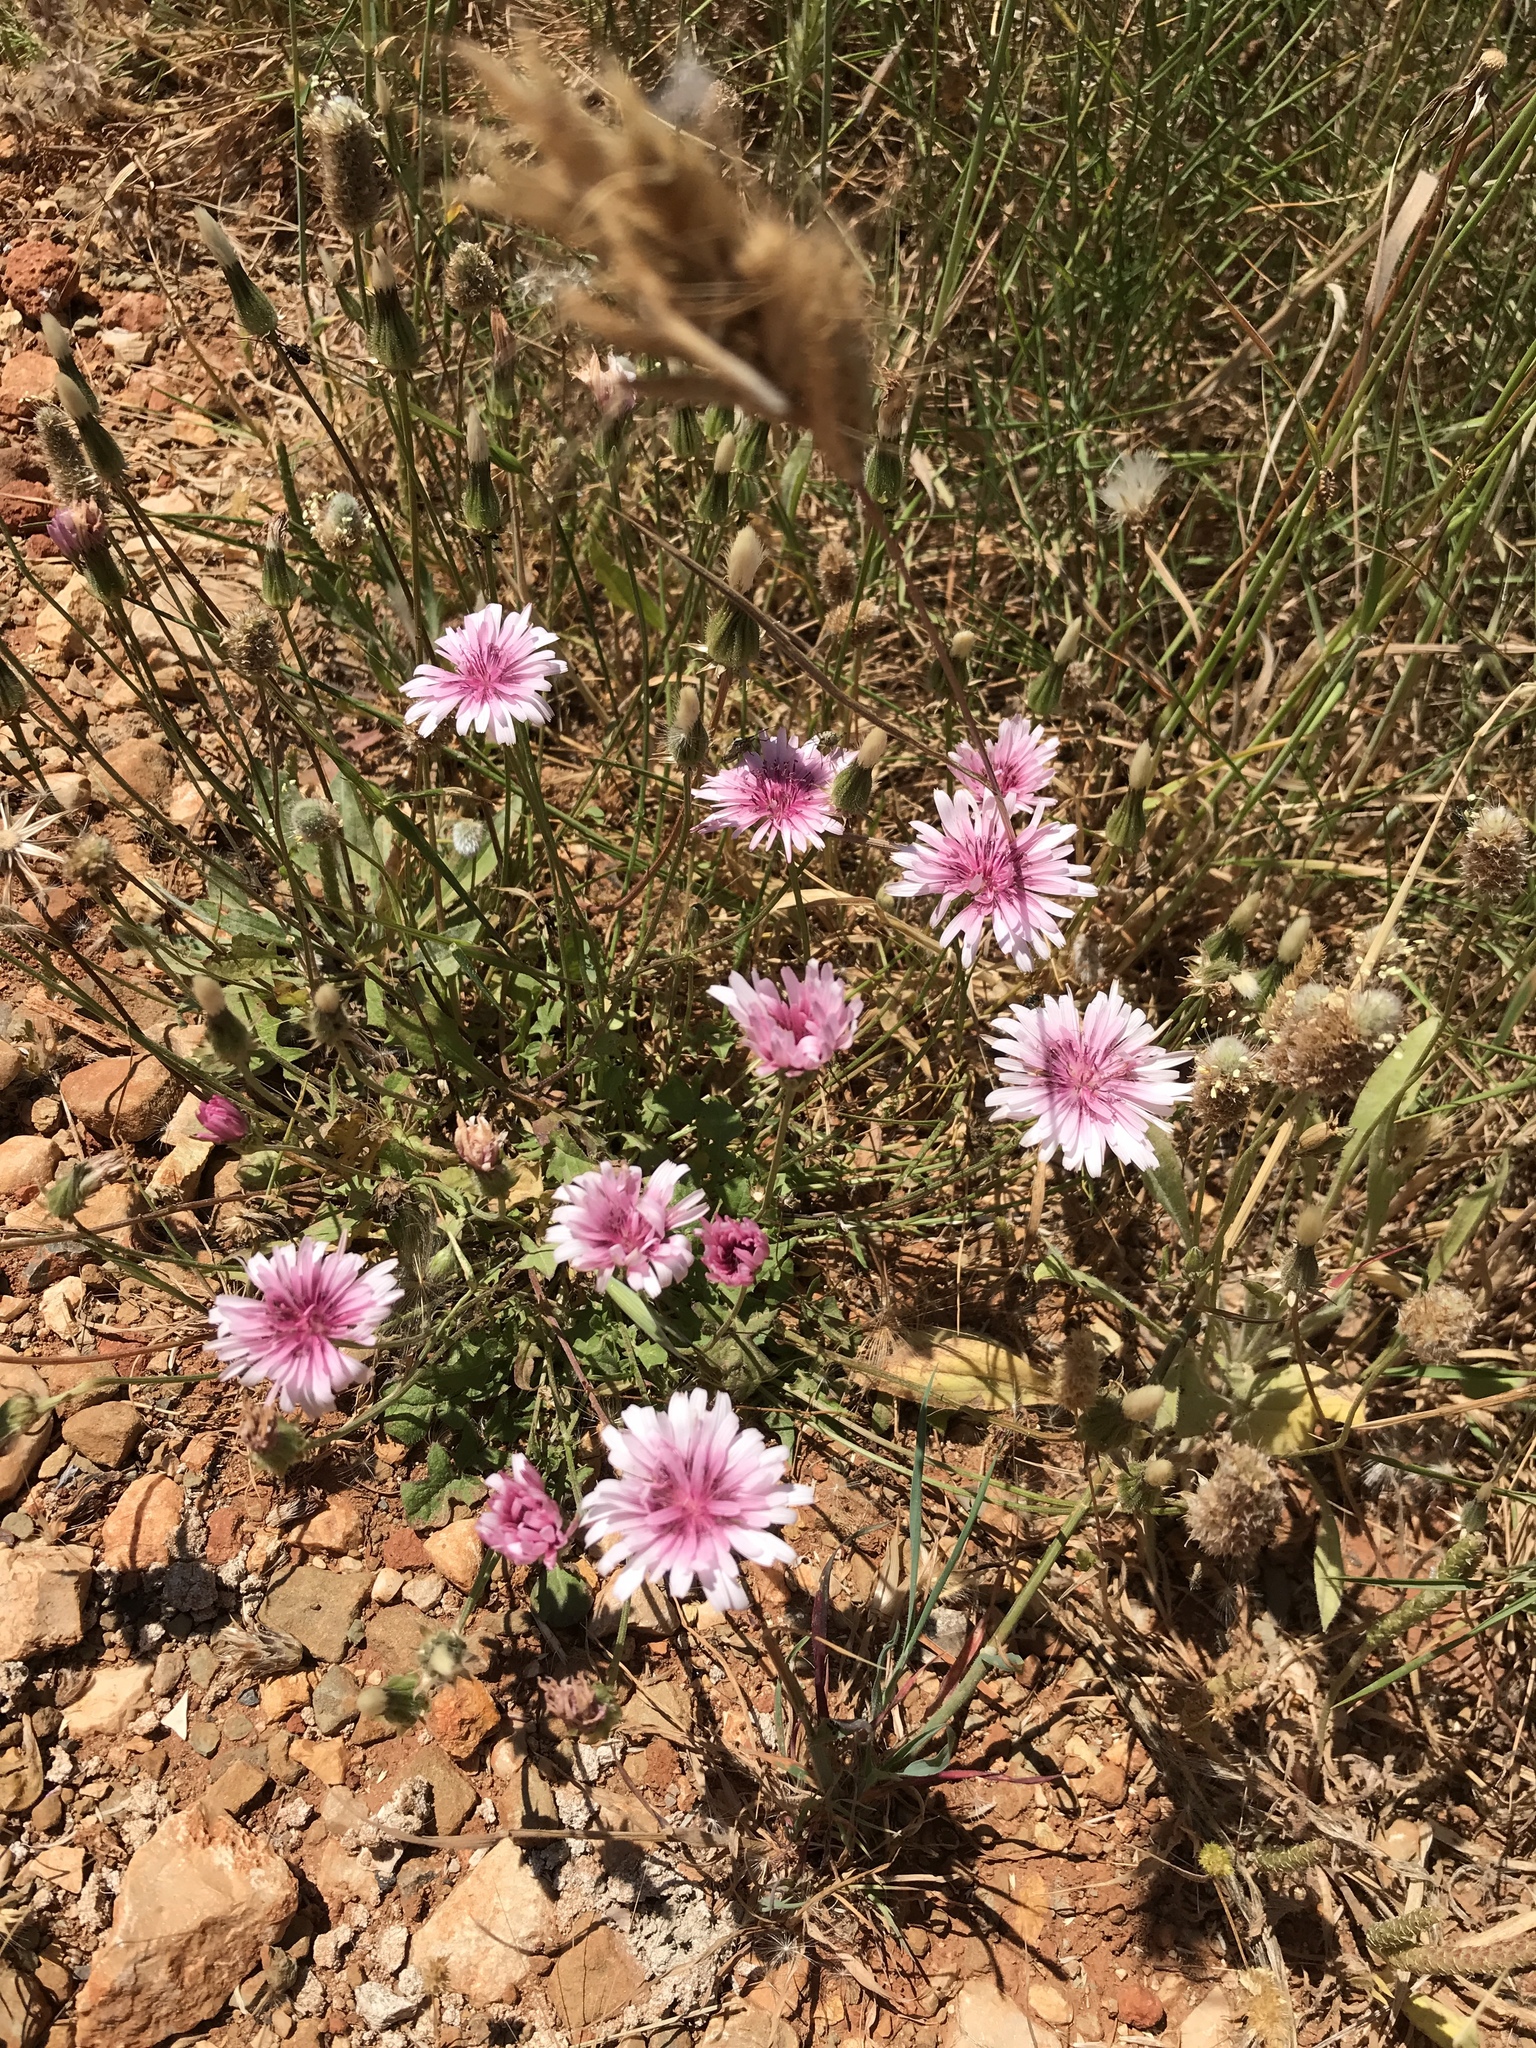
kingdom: Plantae
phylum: Tracheophyta
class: Magnoliopsida
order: Asterales
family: Asteraceae
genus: Crepis
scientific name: Crepis rubra
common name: Pink hawk's-beard
